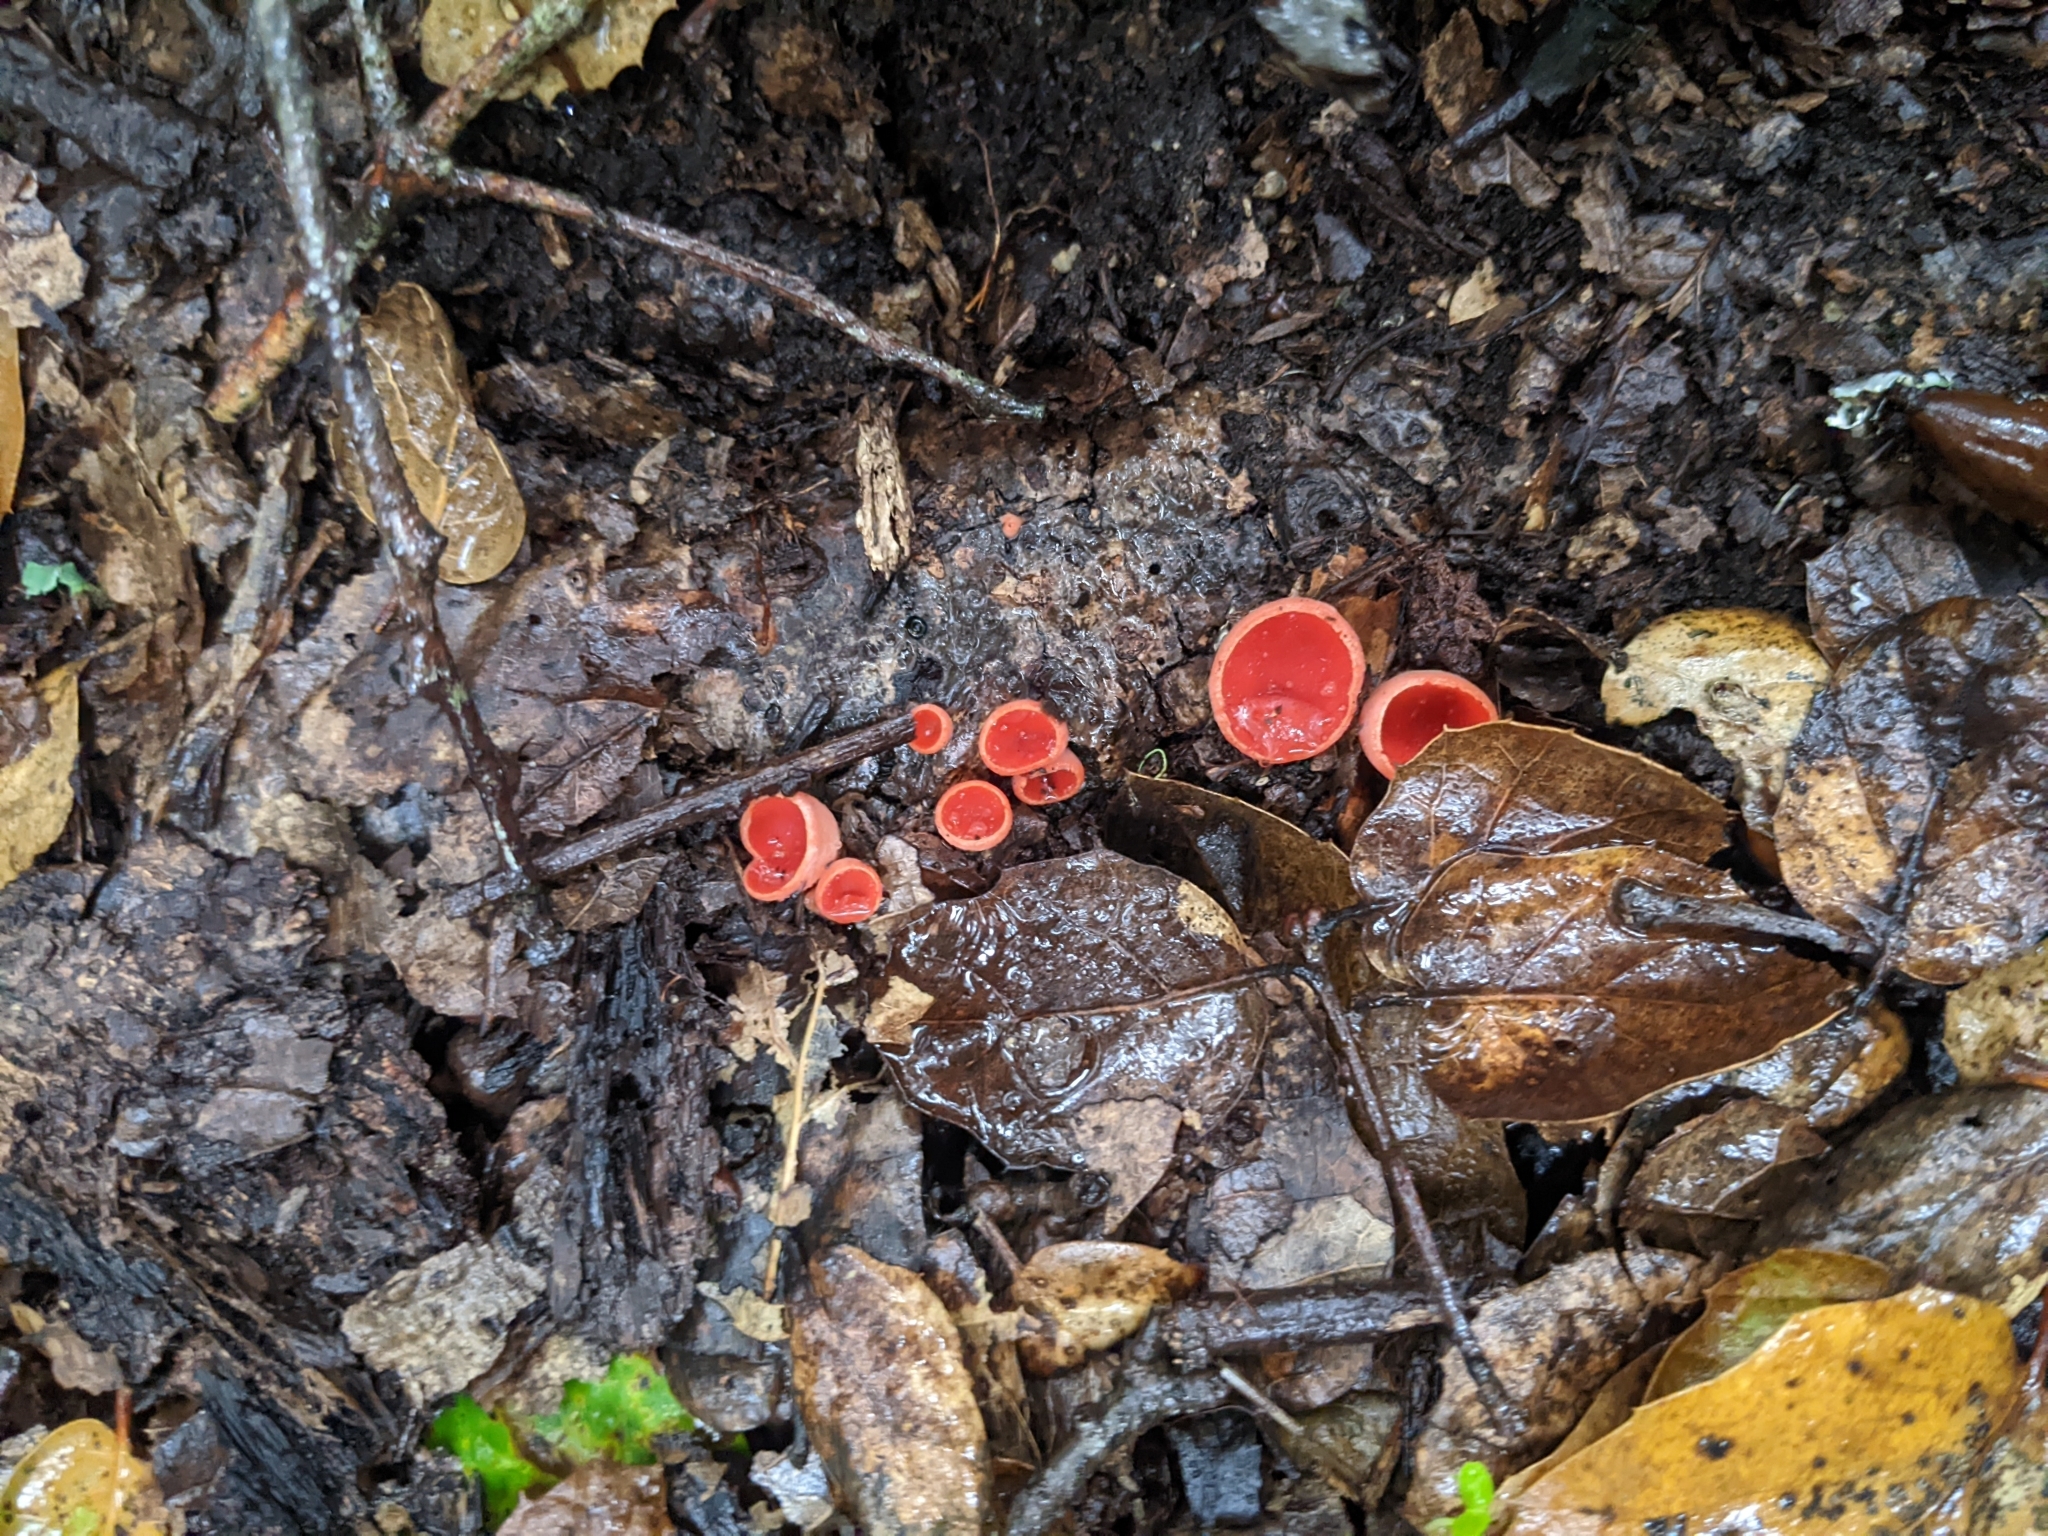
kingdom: Fungi
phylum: Ascomycota
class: Pezizomycetes
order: Pezizales
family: Sarcoscyphaceae
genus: Sarcoscypha
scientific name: Sarcoscypha coccinea
